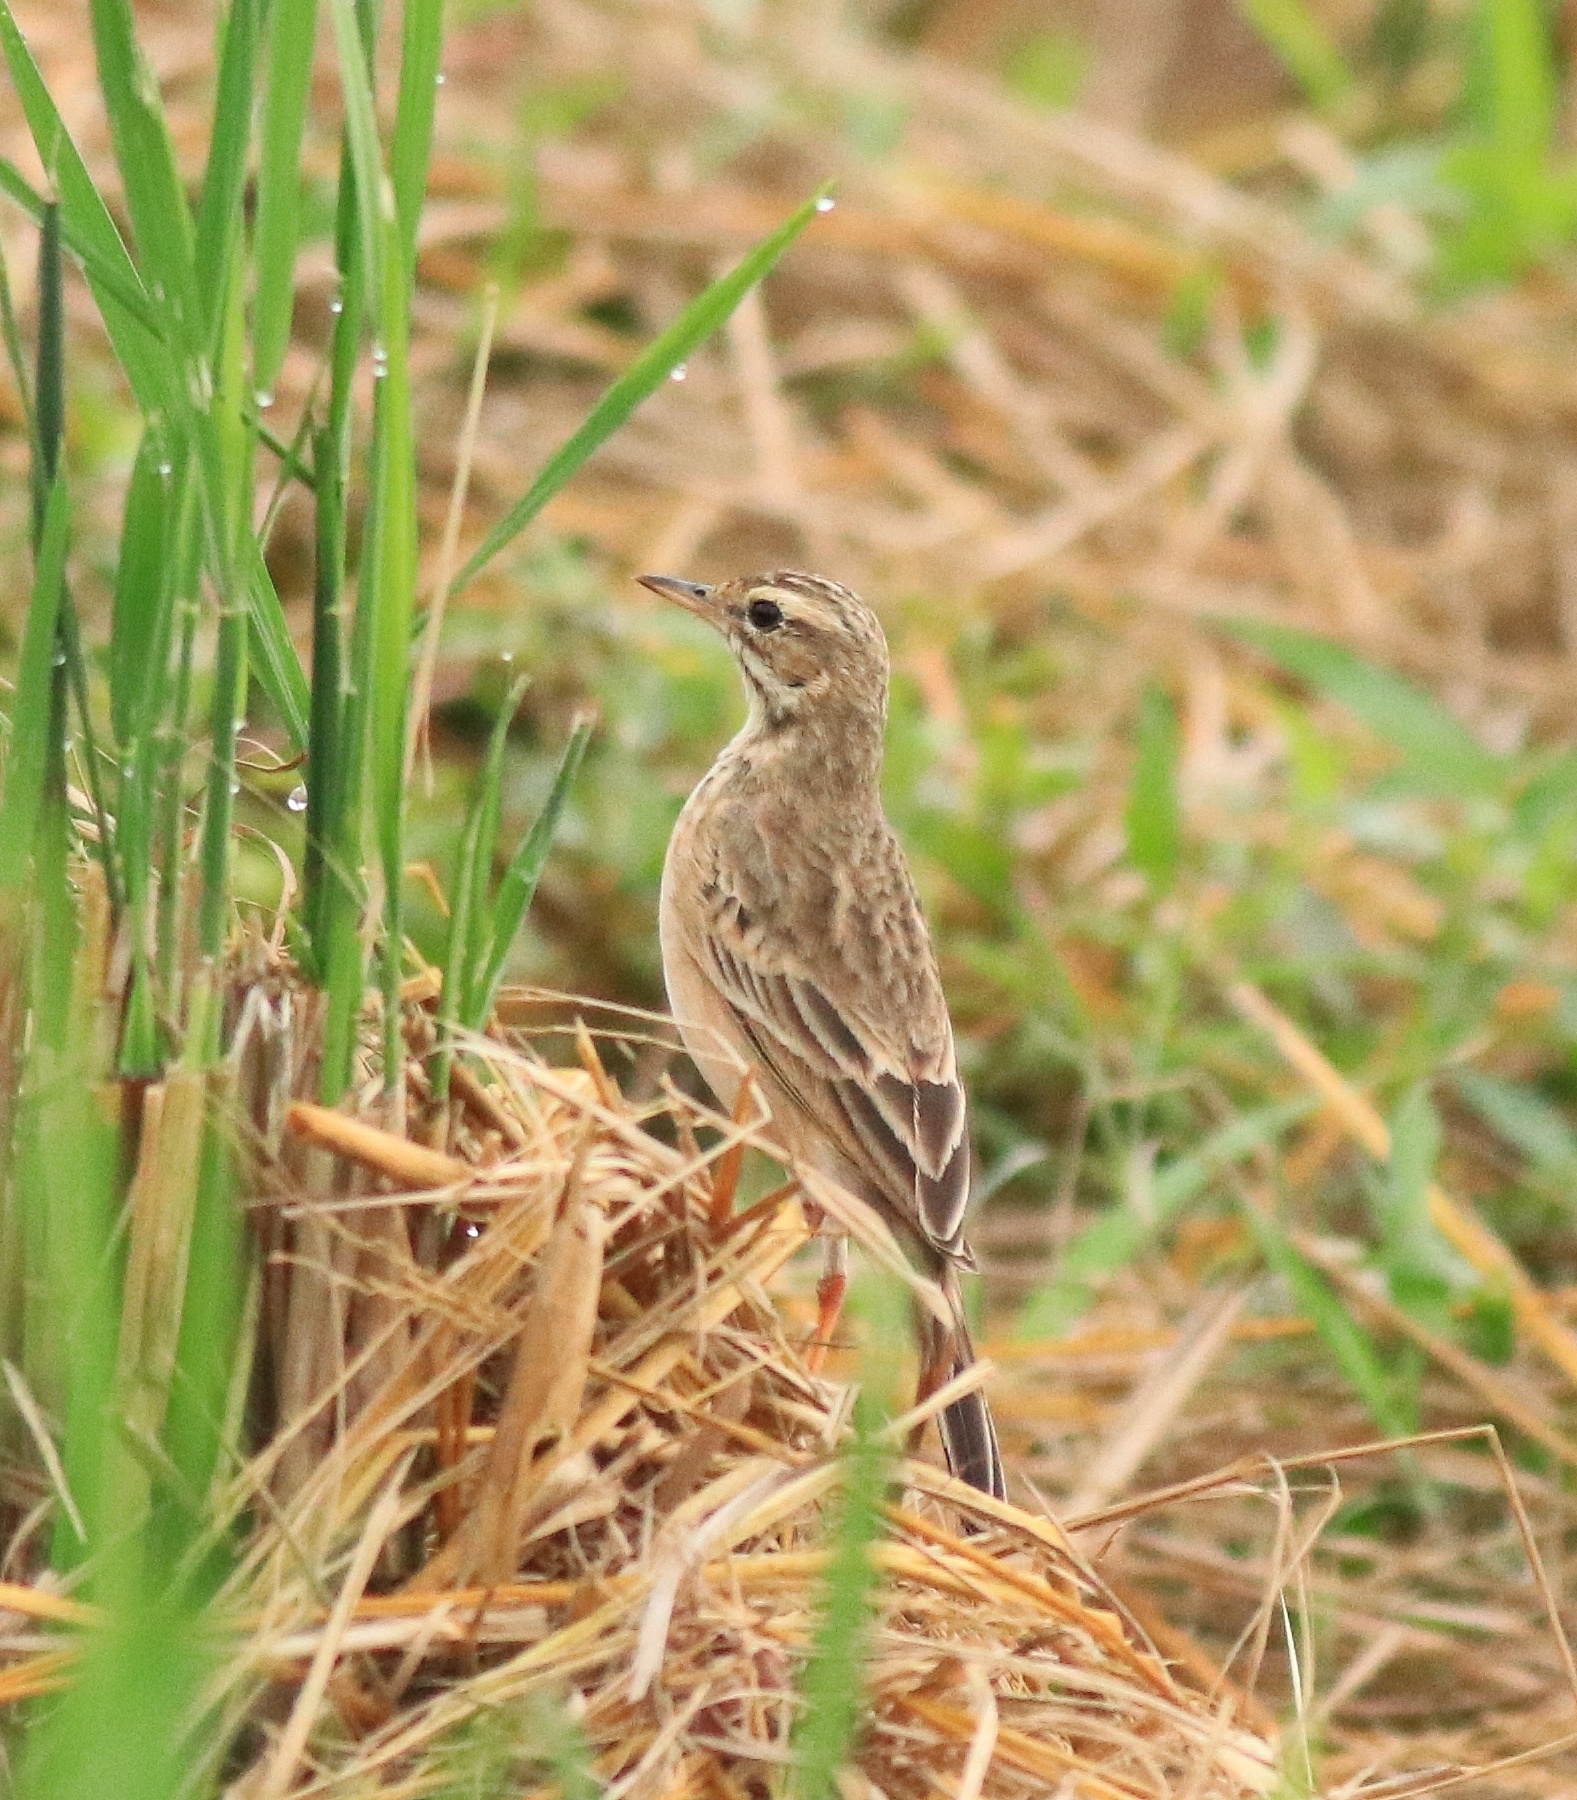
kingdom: Animalia
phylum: Chordata
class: Aves
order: Passeriformes
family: Motacillidae
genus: Anthus
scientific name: Anthus rufulus
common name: Paddyfield pipit
